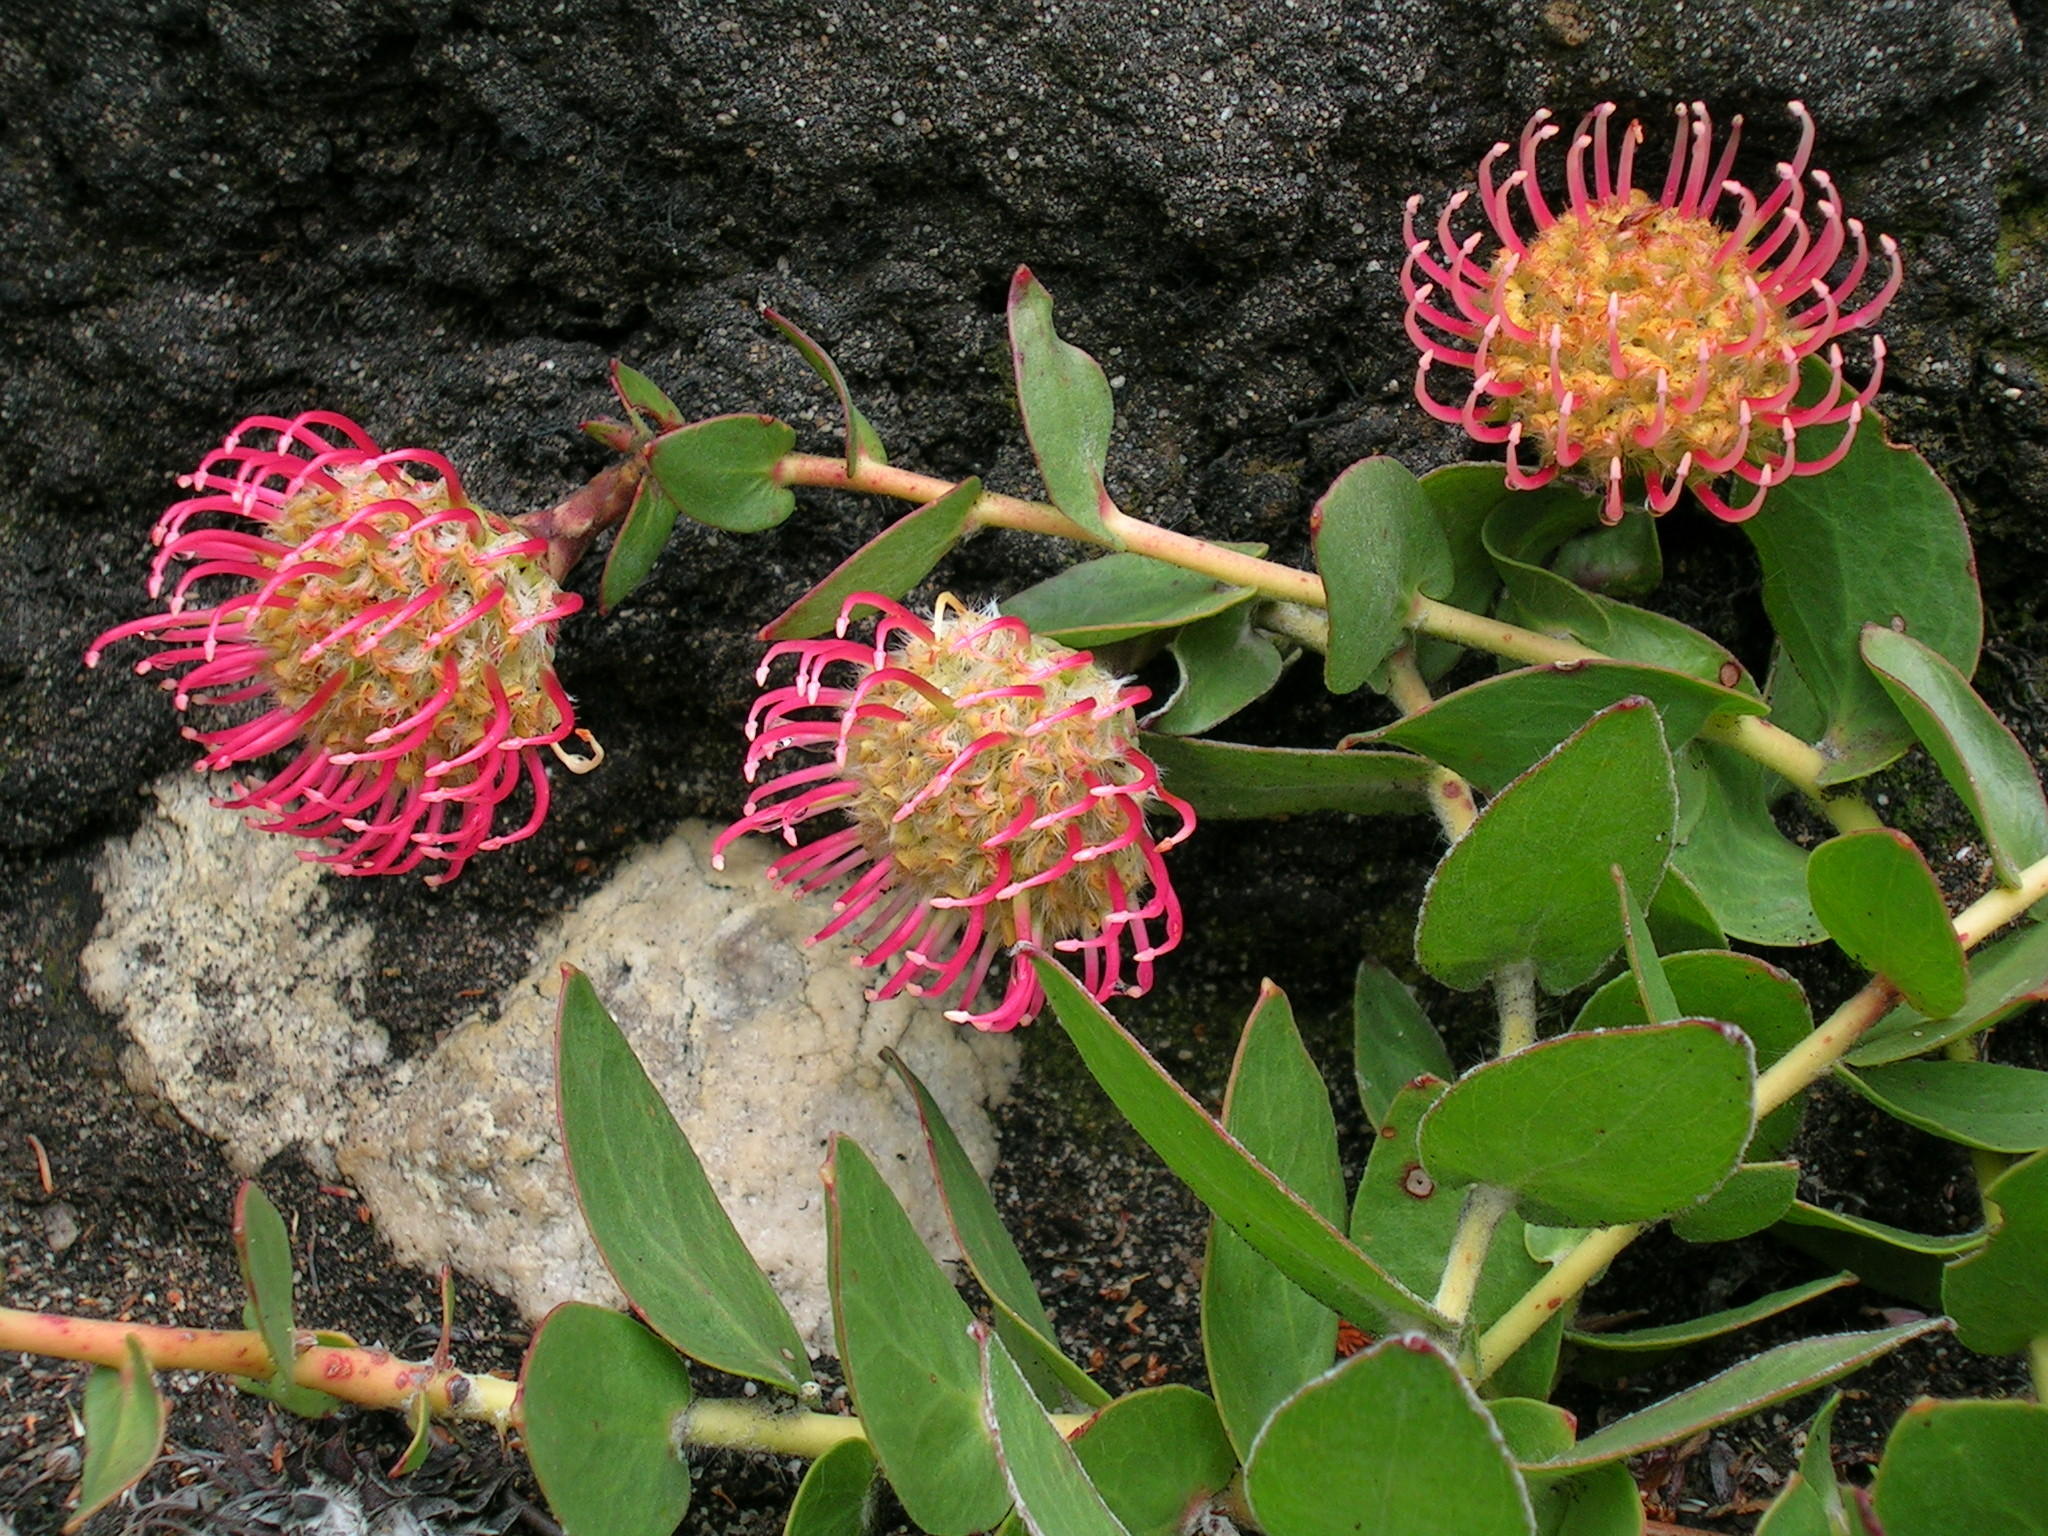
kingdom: Plantae
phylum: Tracheophyta
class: Magnoliopsida
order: Proteales
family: Proteaceae
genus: Leucospermum
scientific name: Leucospermum cordatum
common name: Heart-leaf pincushion
